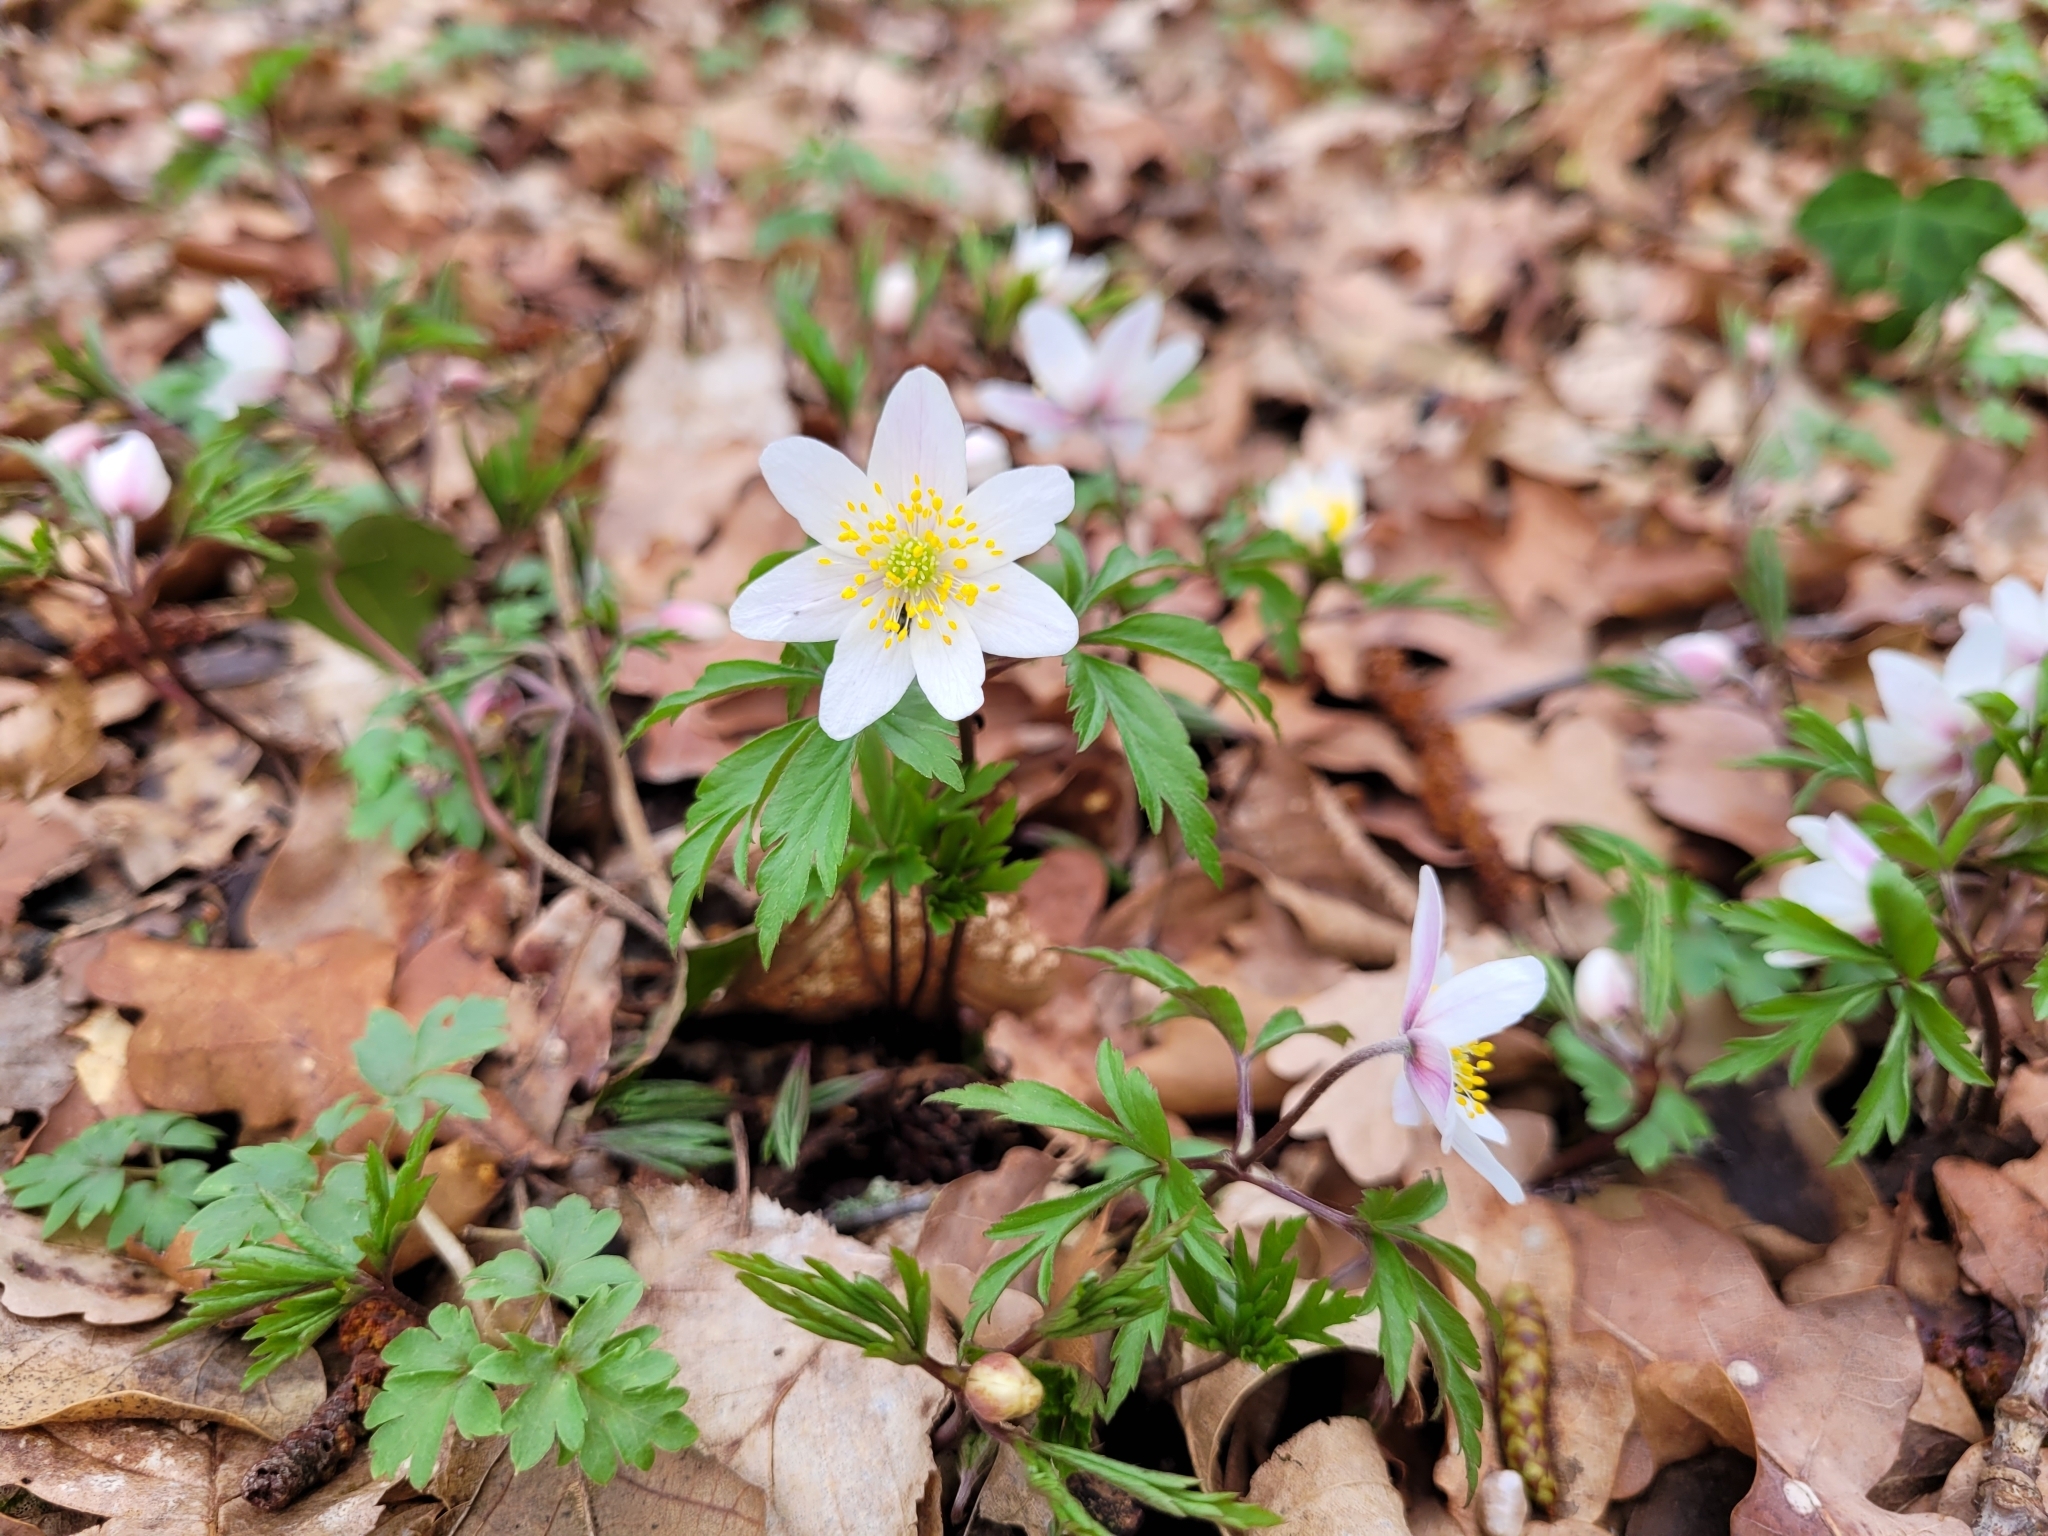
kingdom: Plantae
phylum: Tracheophyta
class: Magnoliopsida
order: Ranunculales
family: Ranunculaceae
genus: Anemone
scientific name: Anemone nemorosa
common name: Wood anemone
